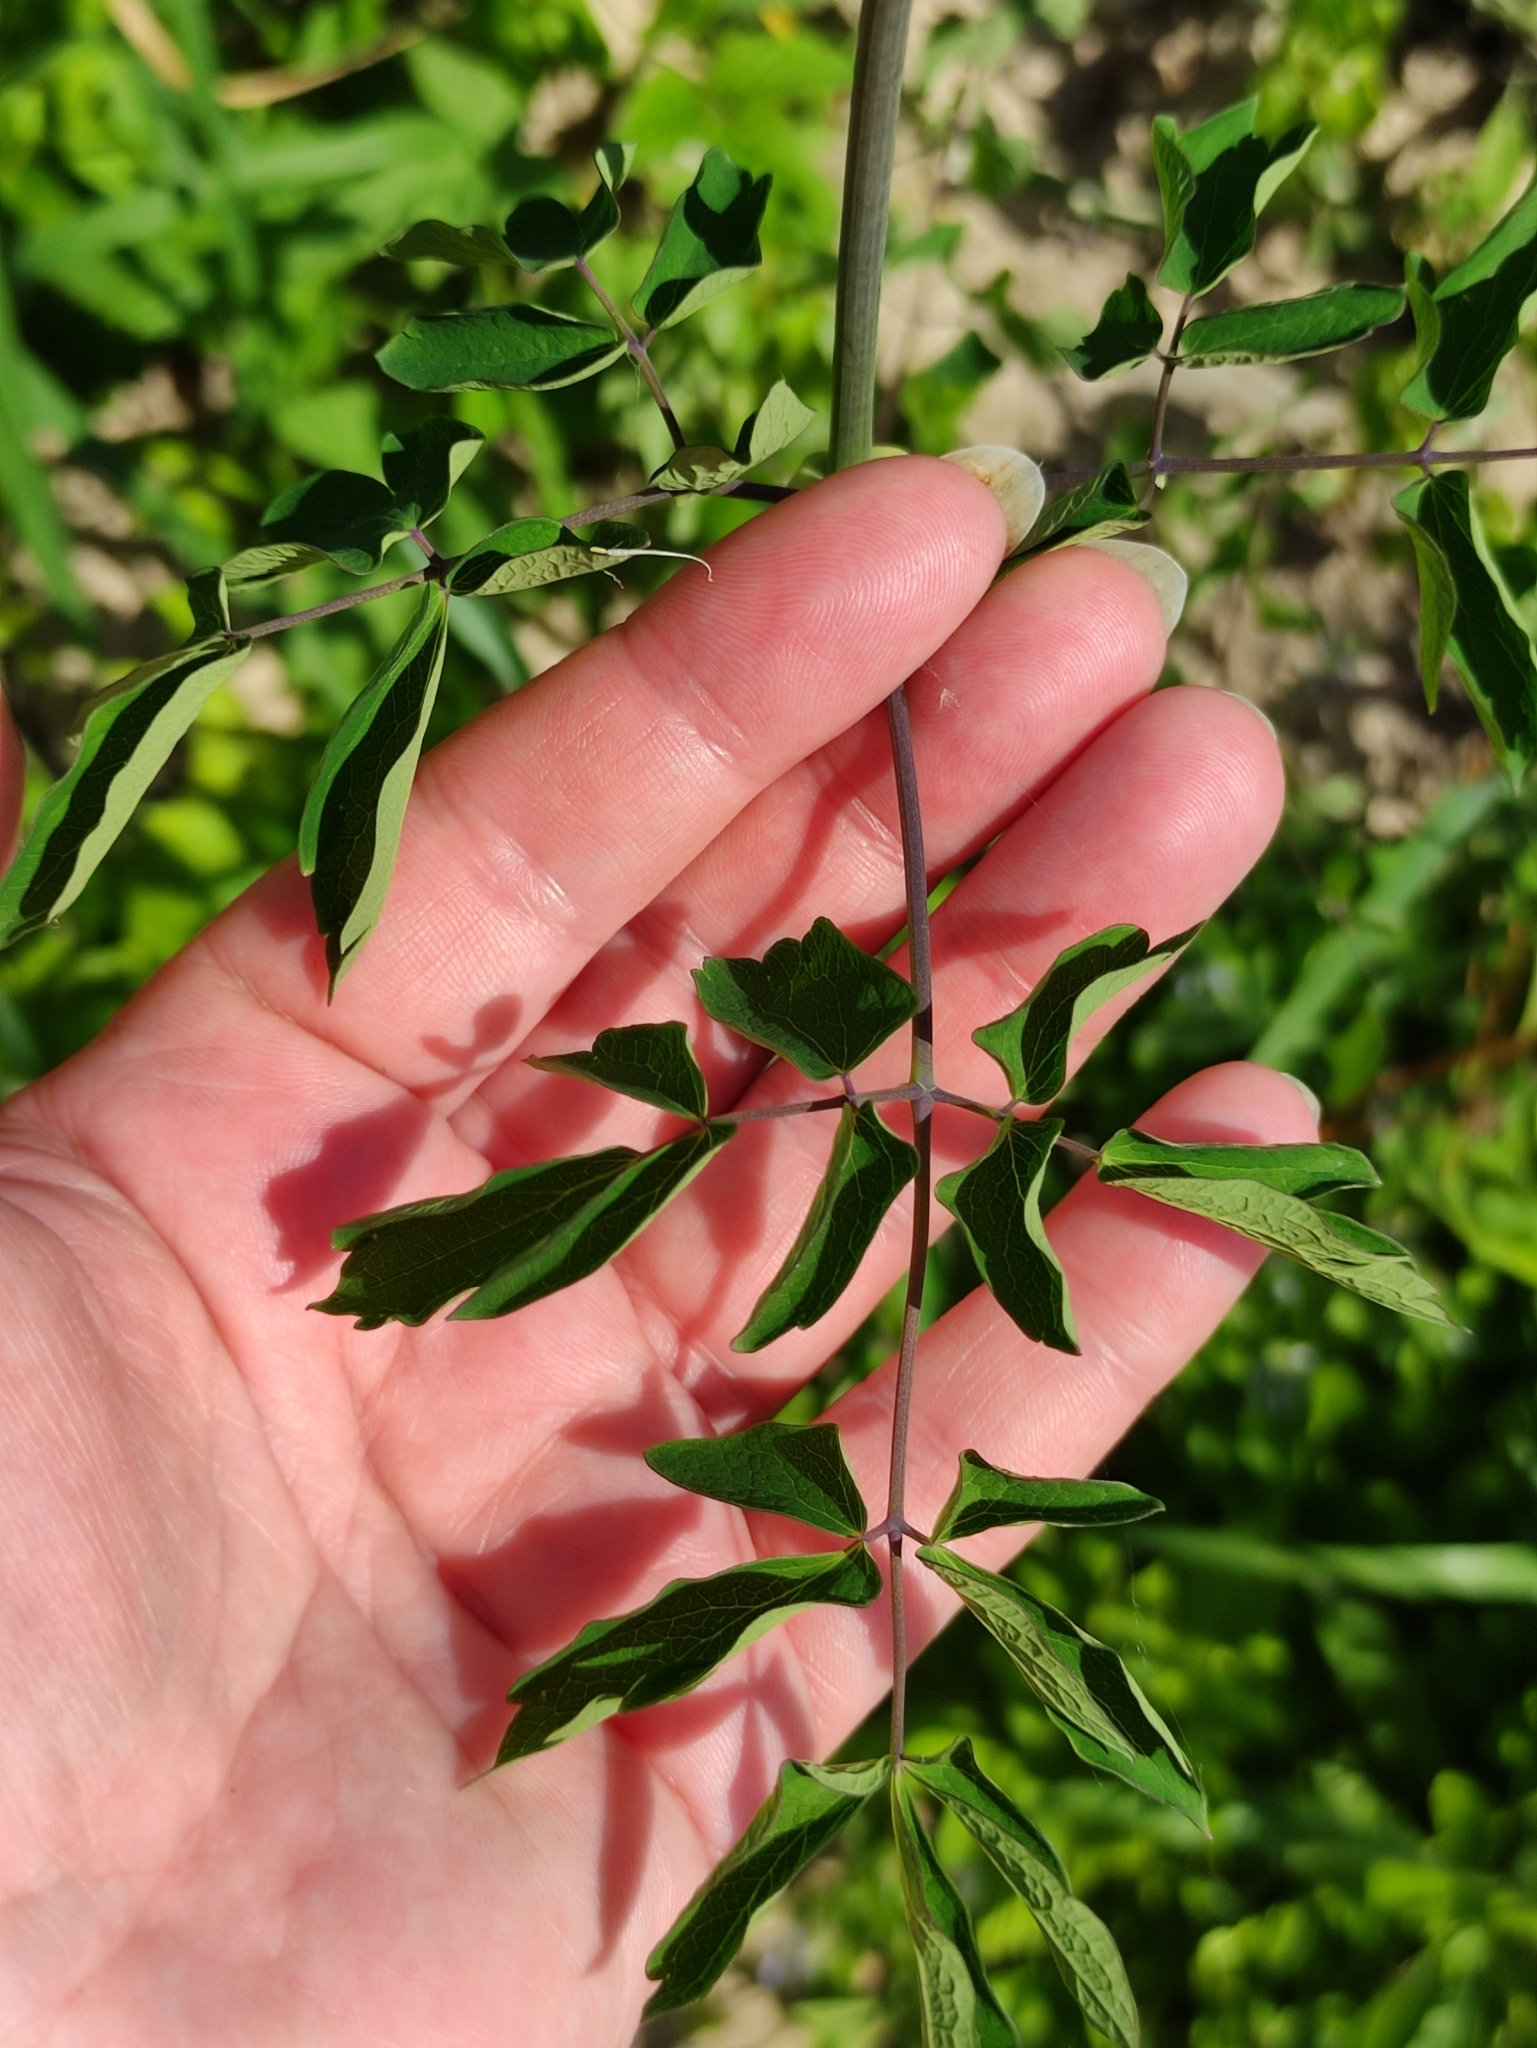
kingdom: Plantae
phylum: Tracheophyta
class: Magnoliopsida
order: Ranunculales
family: Ranunculaceae
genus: Thalictrum
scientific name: Thalictrum aquilegiifolium
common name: French meadow-rue
